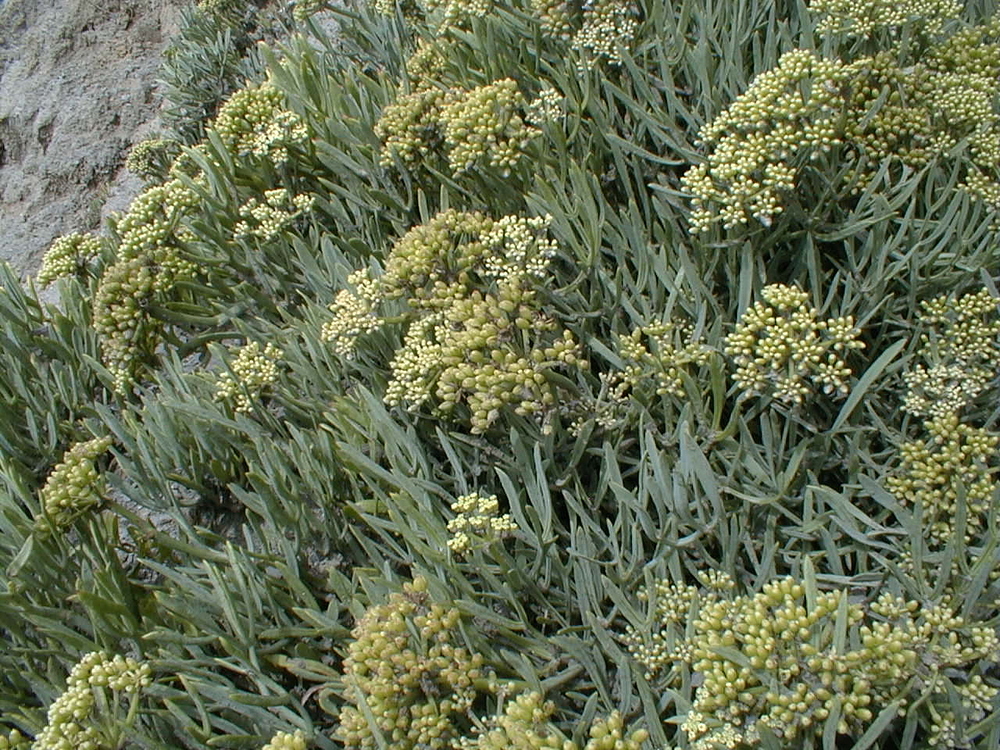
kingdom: Plantae
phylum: Tracheophyta
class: Magnoliopsida
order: Apiales
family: Apiaceae
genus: Crithmum
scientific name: Crithmum maritimum
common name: Rock samphire
